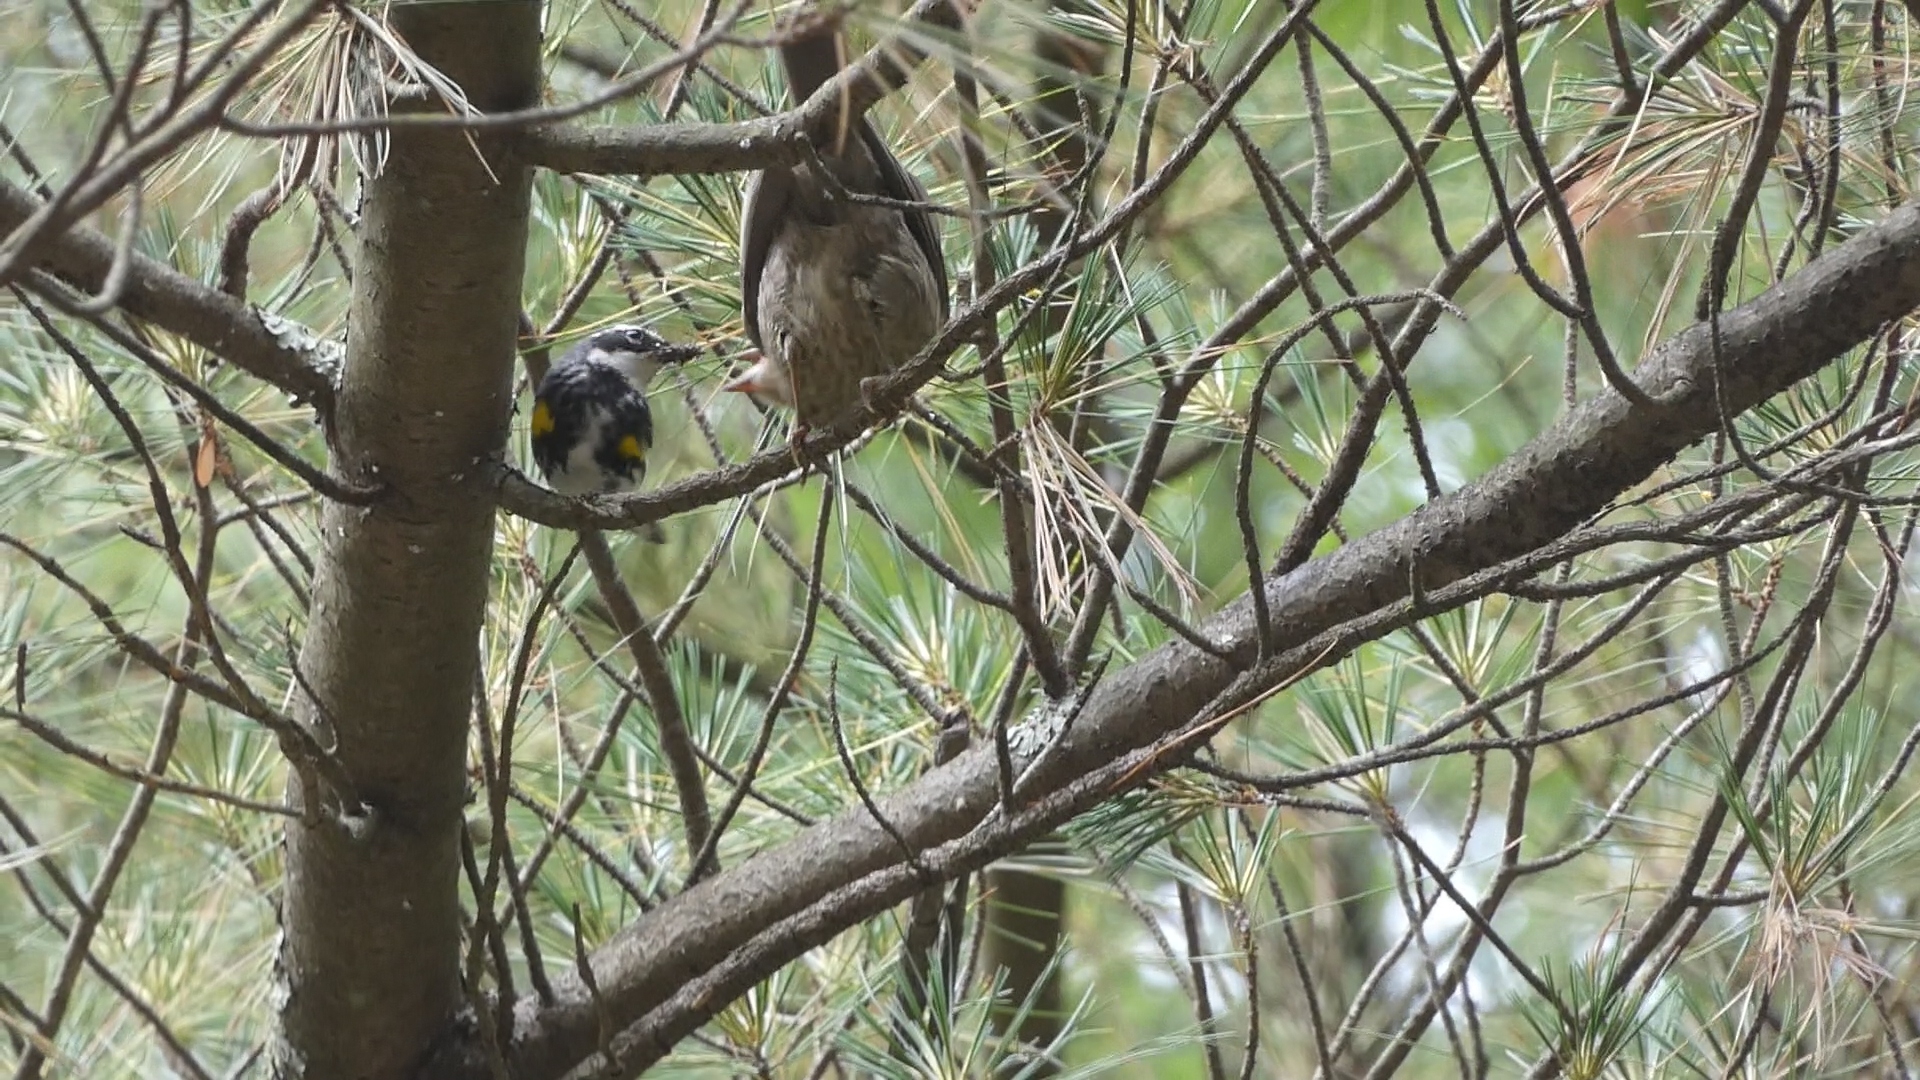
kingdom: Animalia
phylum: Chordata
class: Aves
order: Passeriformes
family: Icteridae
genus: Molothrus
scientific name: Molothrus ater
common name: Brown-headed cowbird
